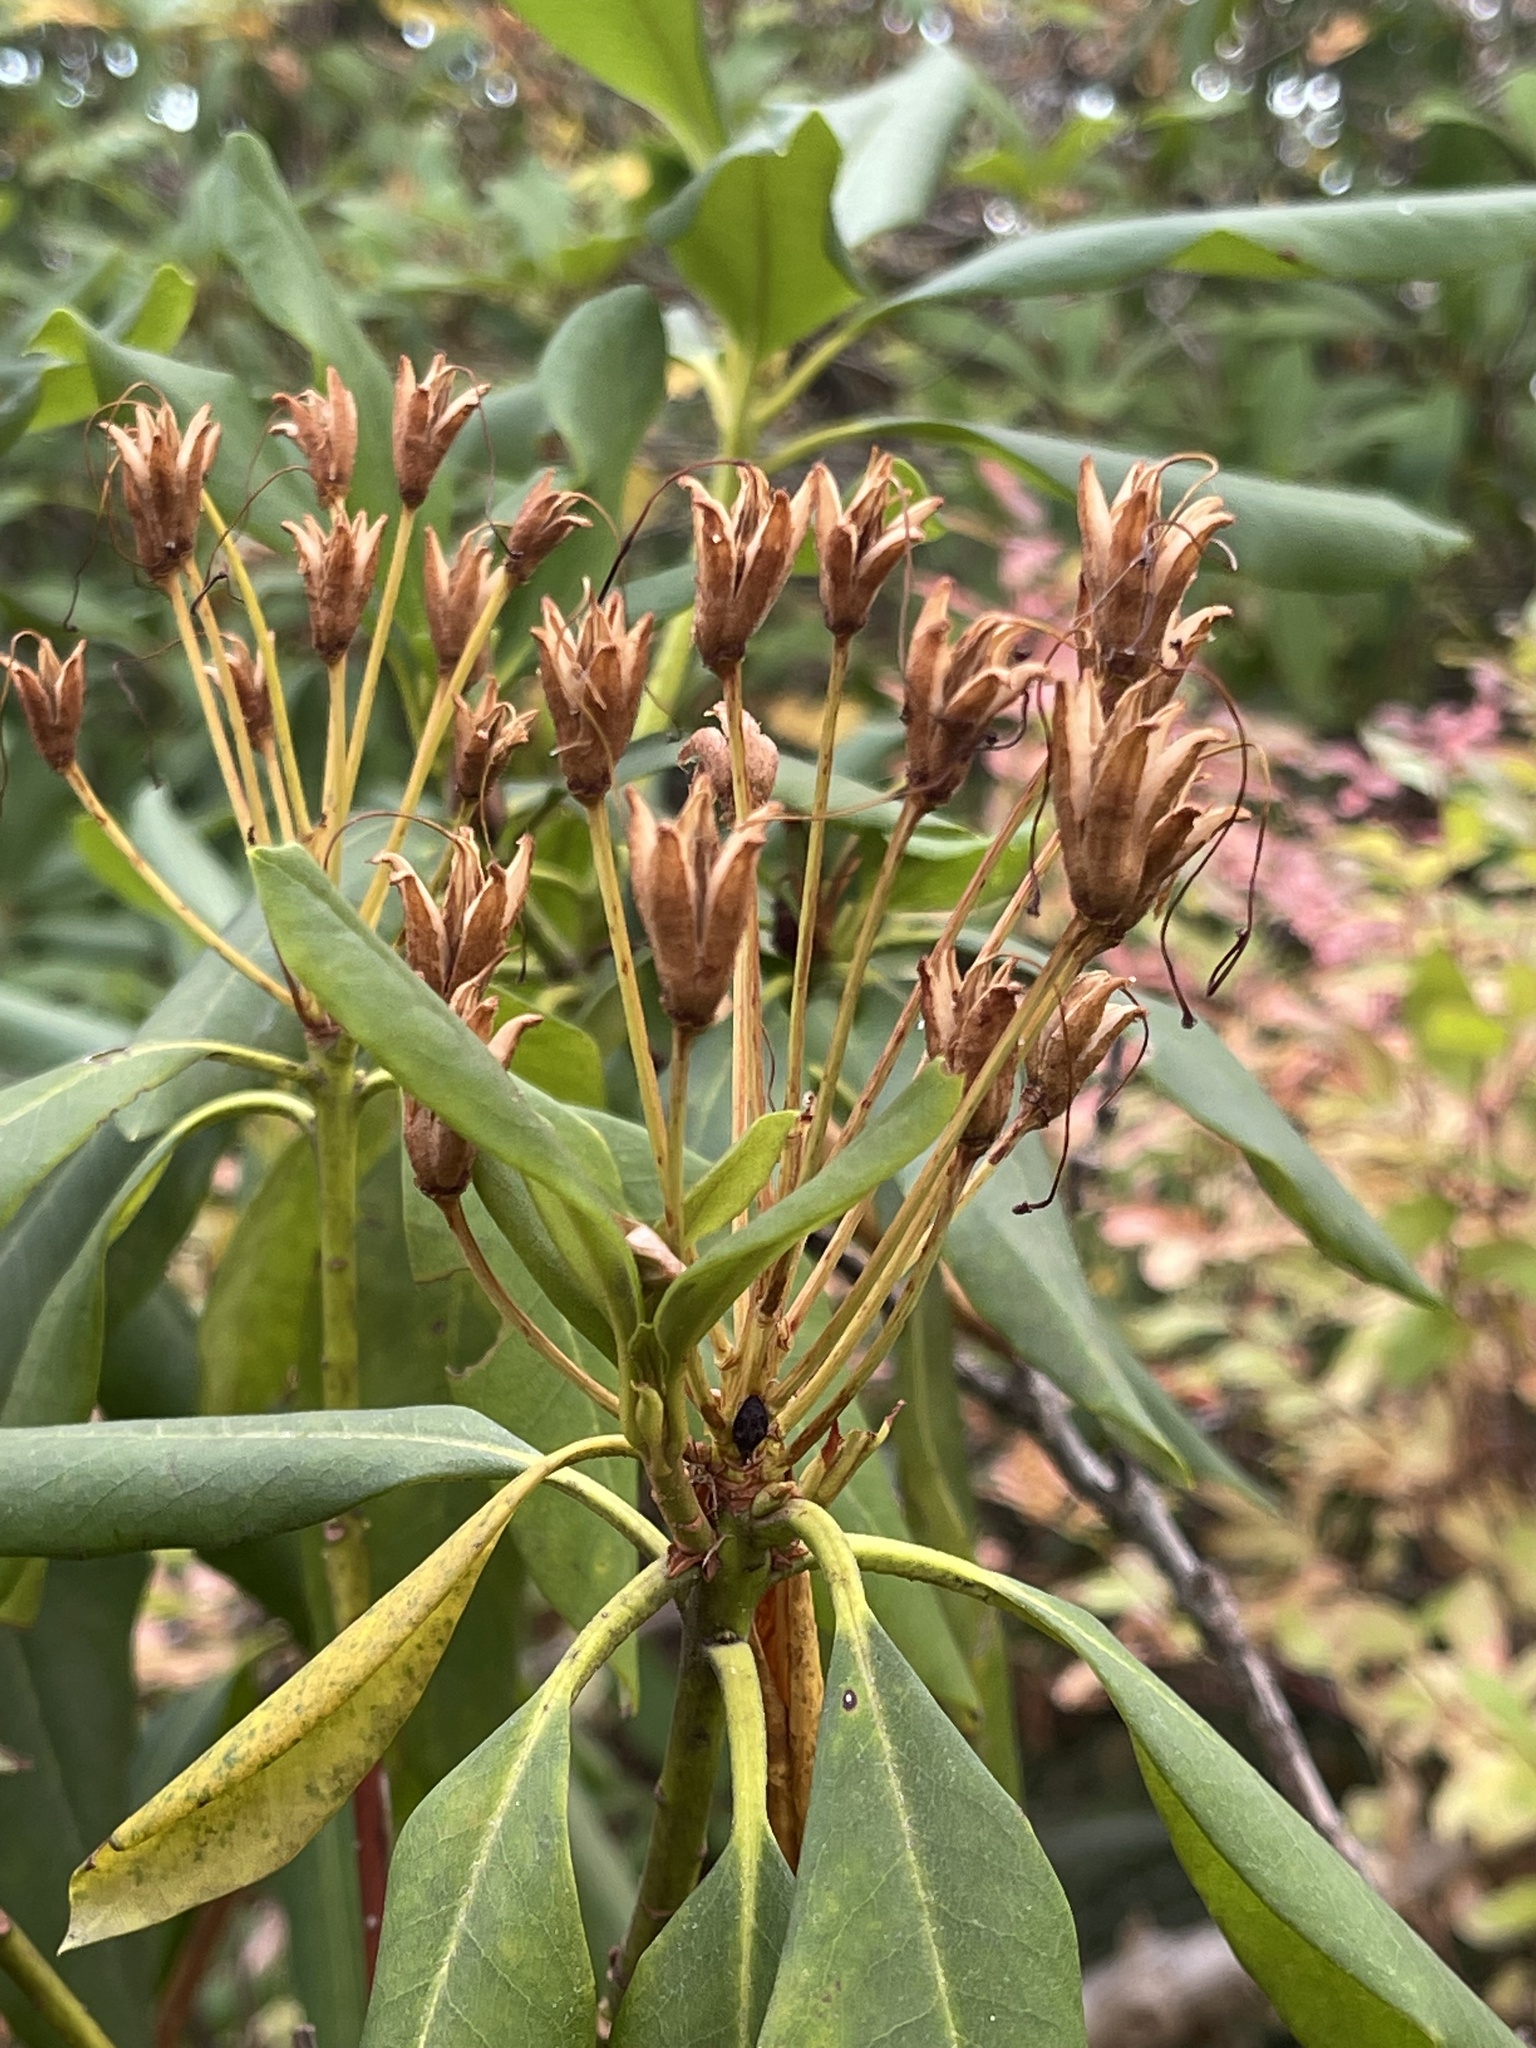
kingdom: Plantae
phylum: Tracheophyta
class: Magnoliopsida
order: Ericales
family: Ericaceae
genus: Rhododendron
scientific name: Rhododendron macrophyllum
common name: California rose bay
